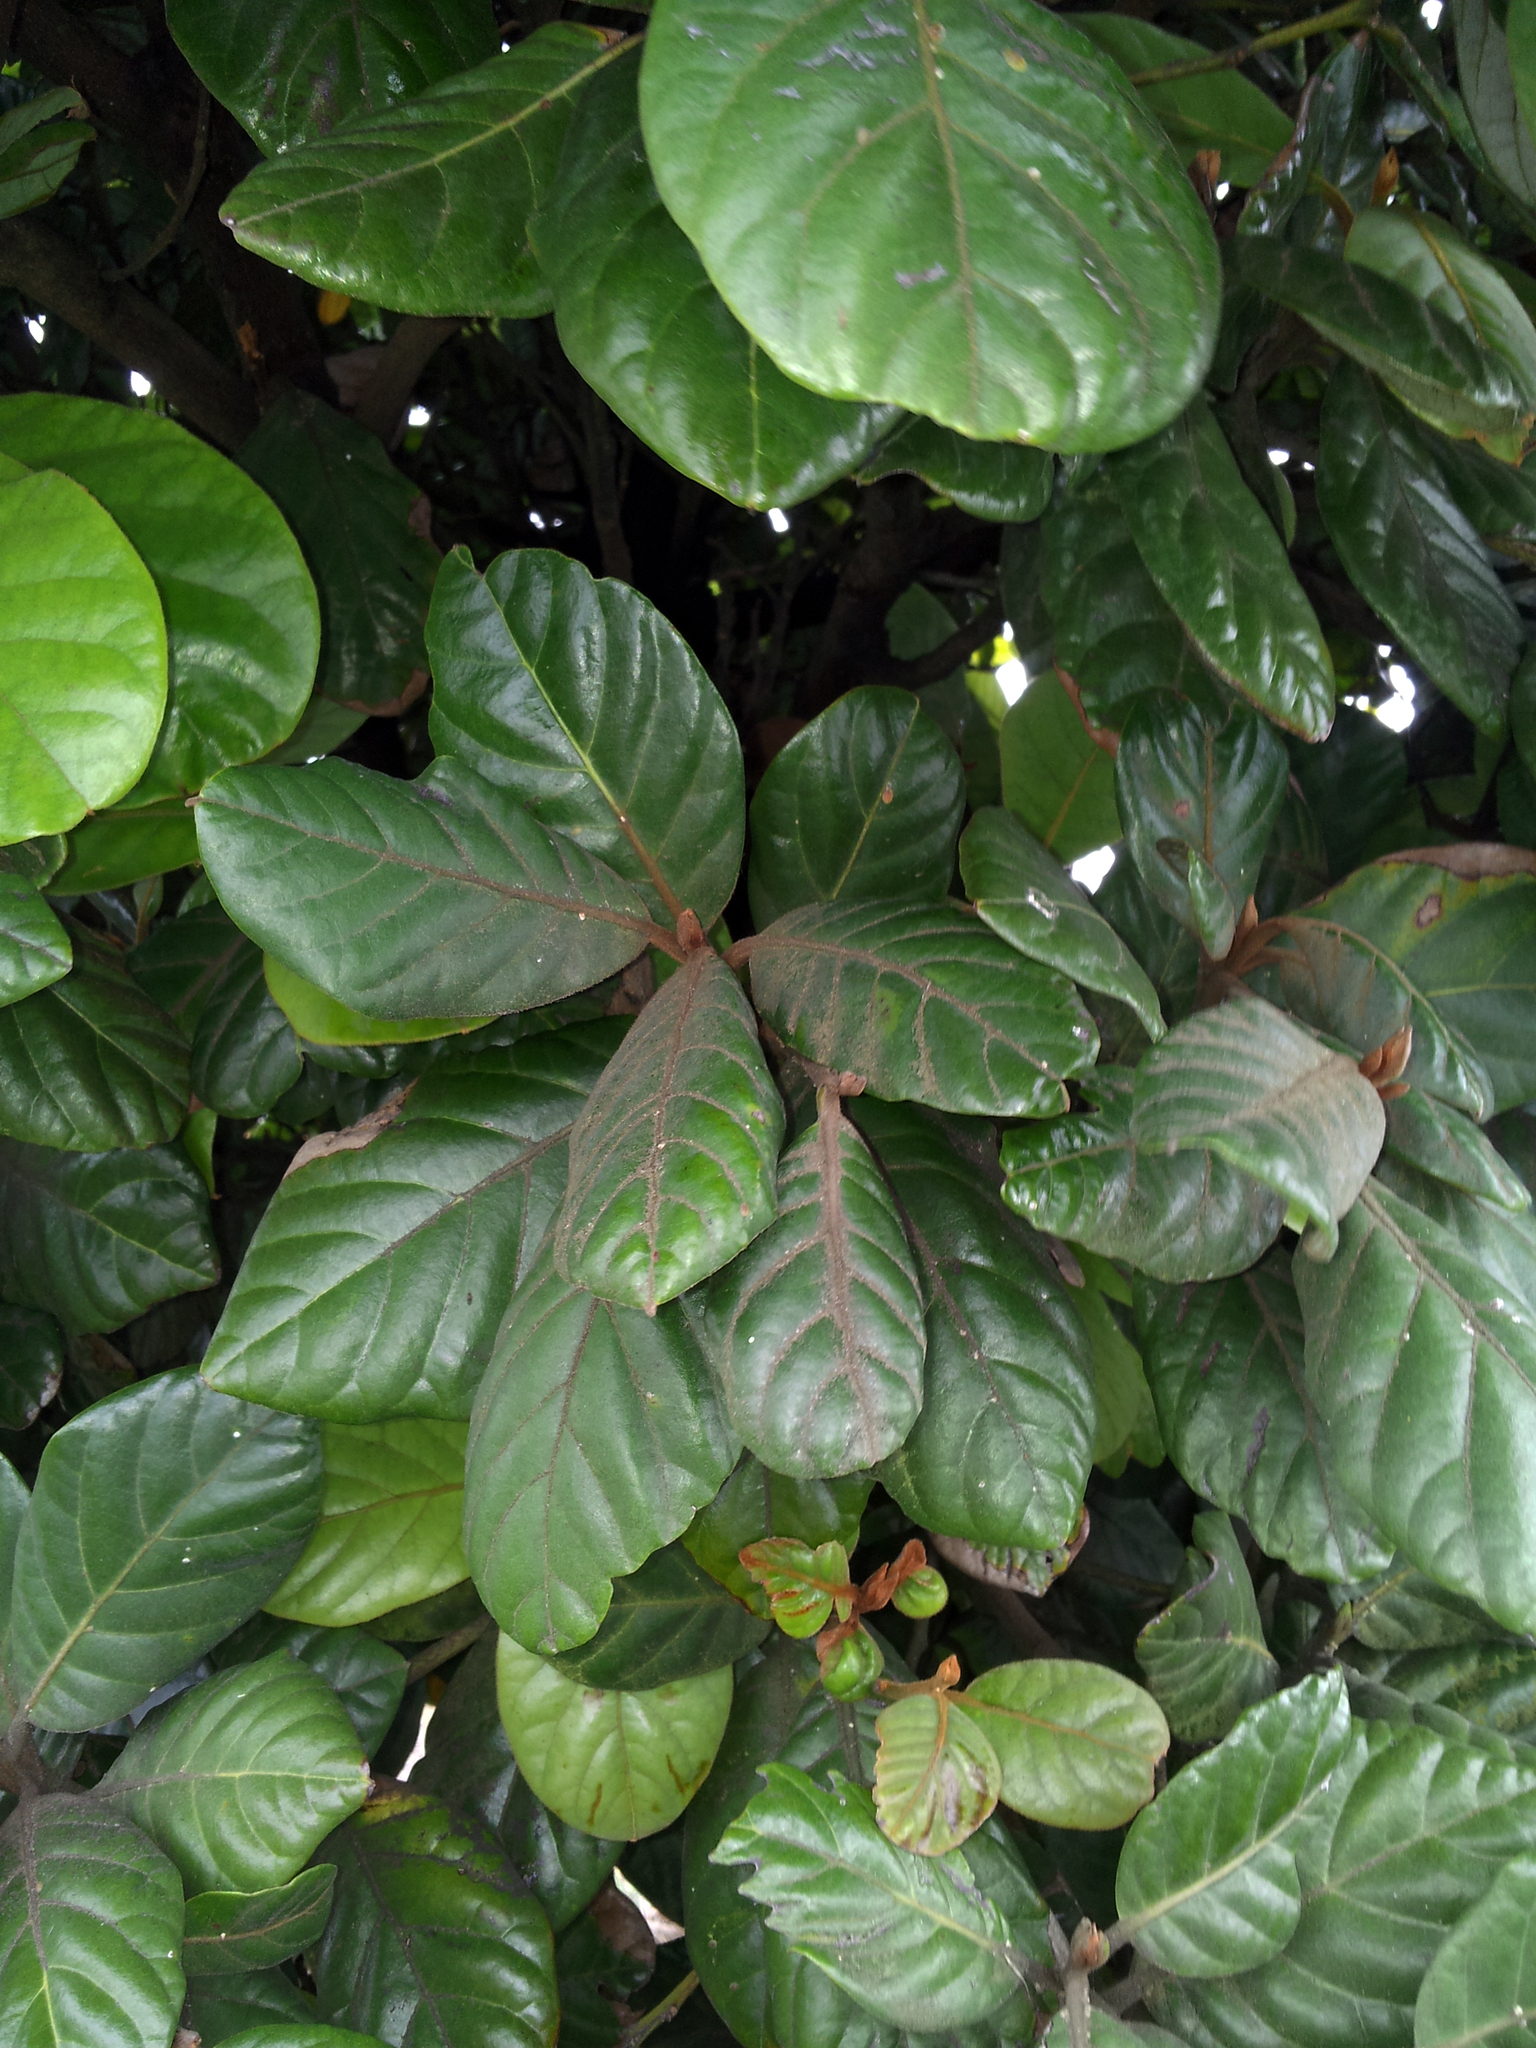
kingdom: Plantae
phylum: Tracheophyta
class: Magnoliopsida
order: Laurales
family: Lauraceae
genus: Beilschmiedia
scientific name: Beilschmiedia tarairi
